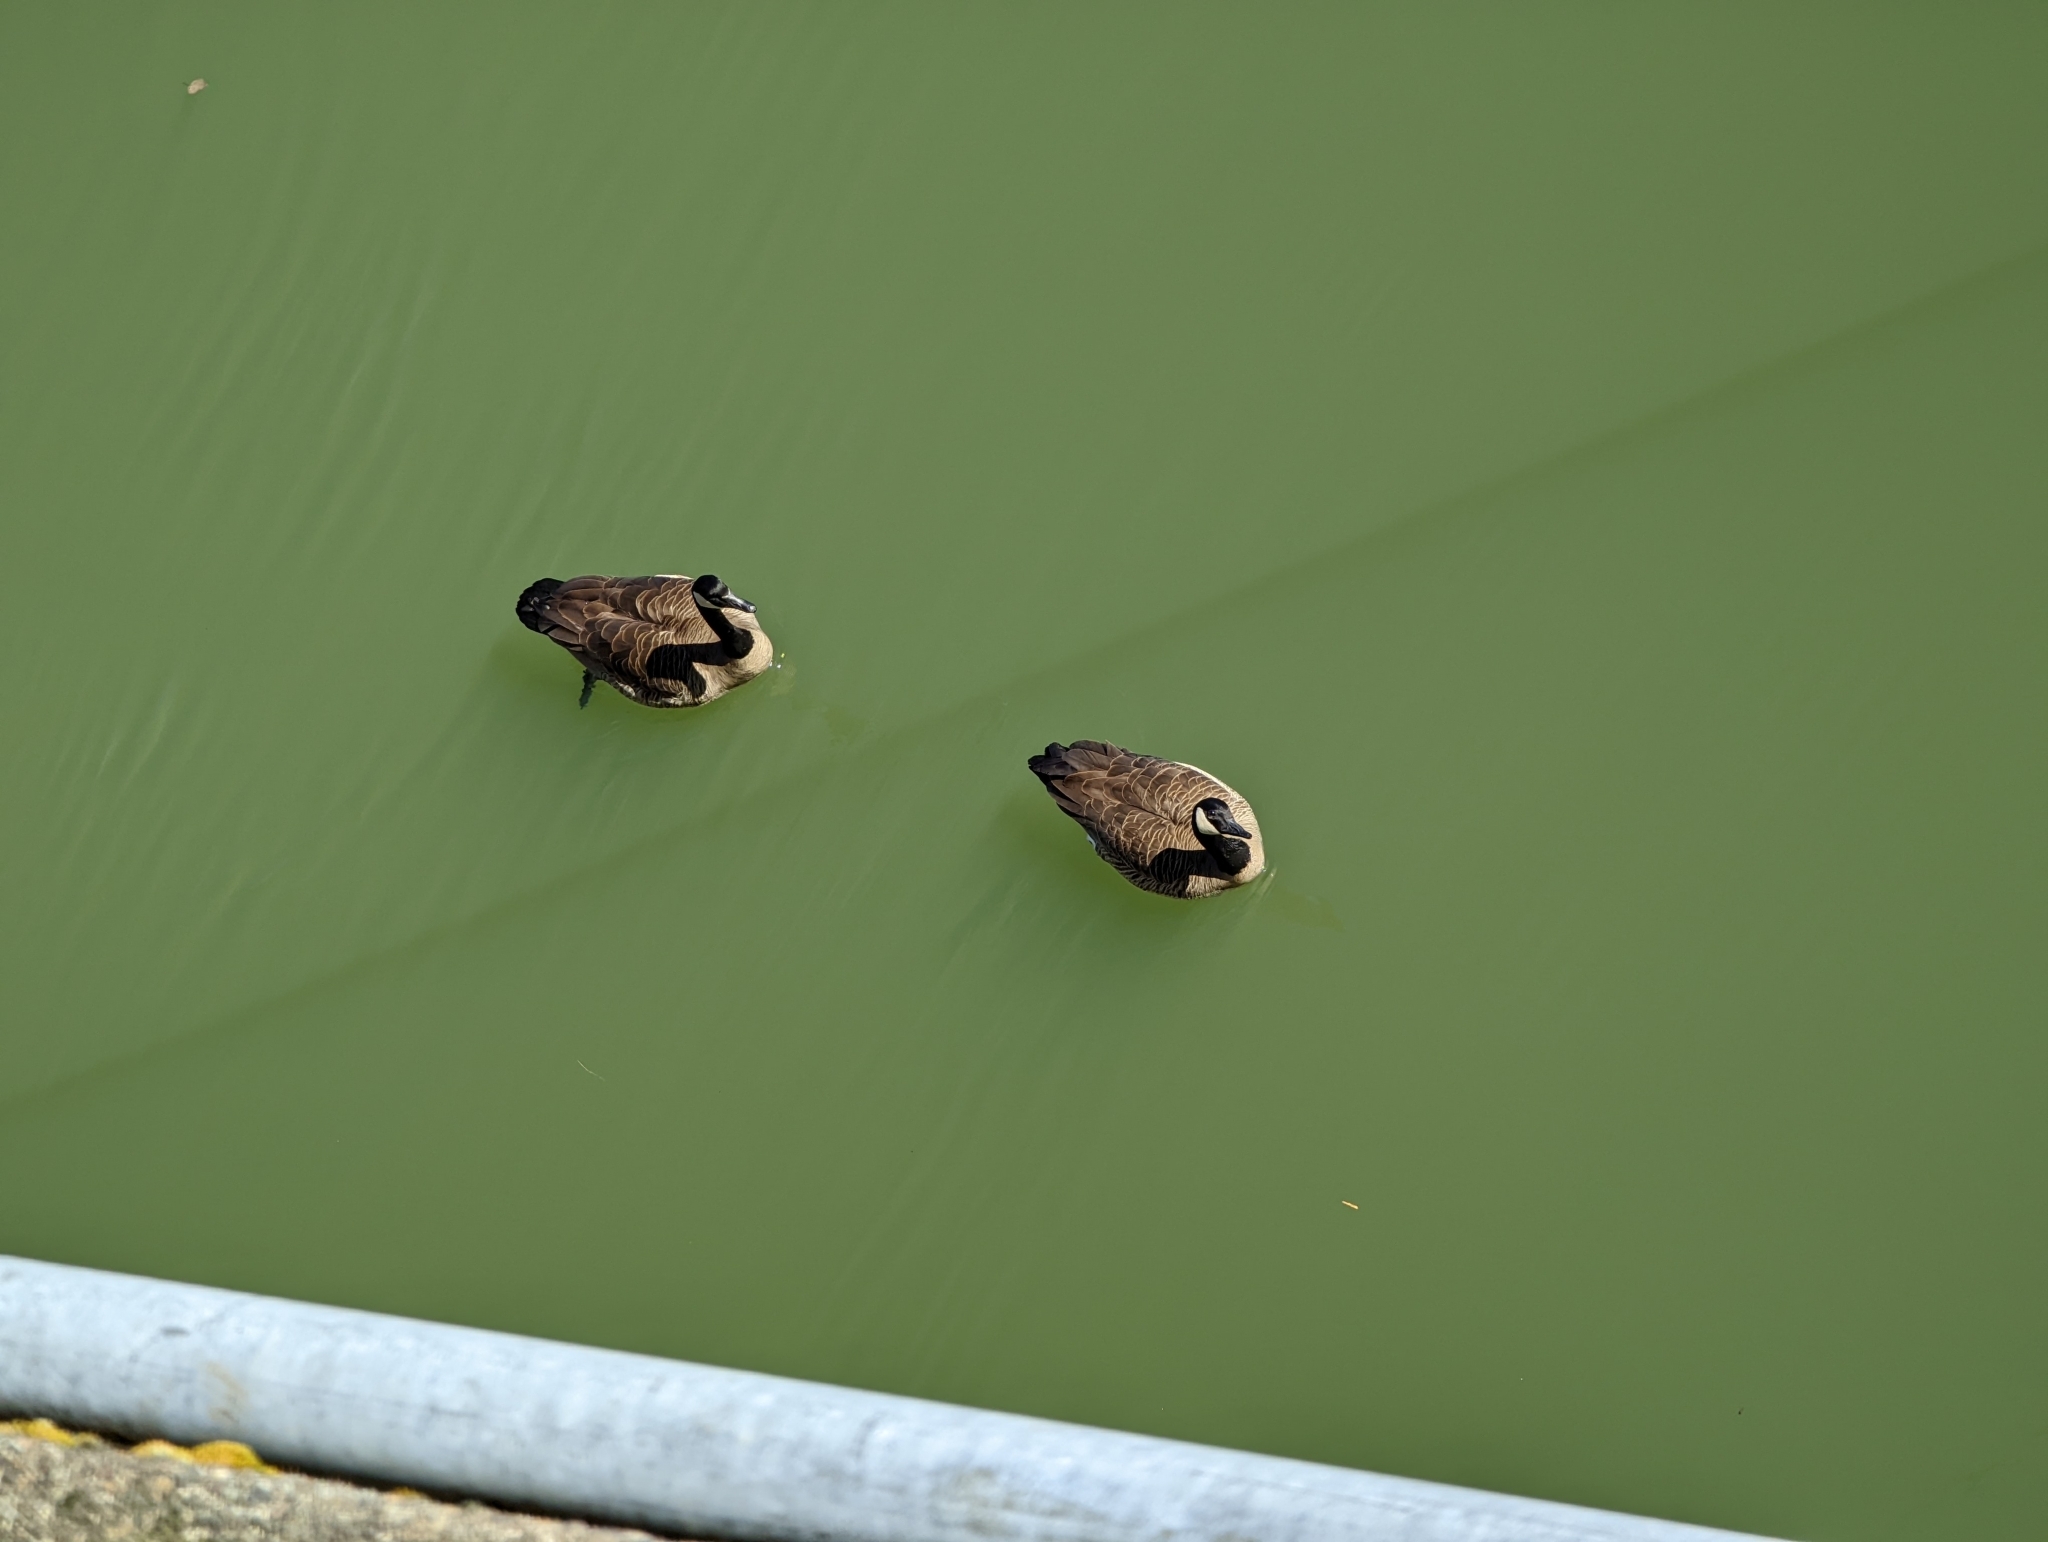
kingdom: Animalia
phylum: Chordata
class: Aves
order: Anseriformes
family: Anatidae
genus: Branta
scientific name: Branta canadensis
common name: Canada goose
